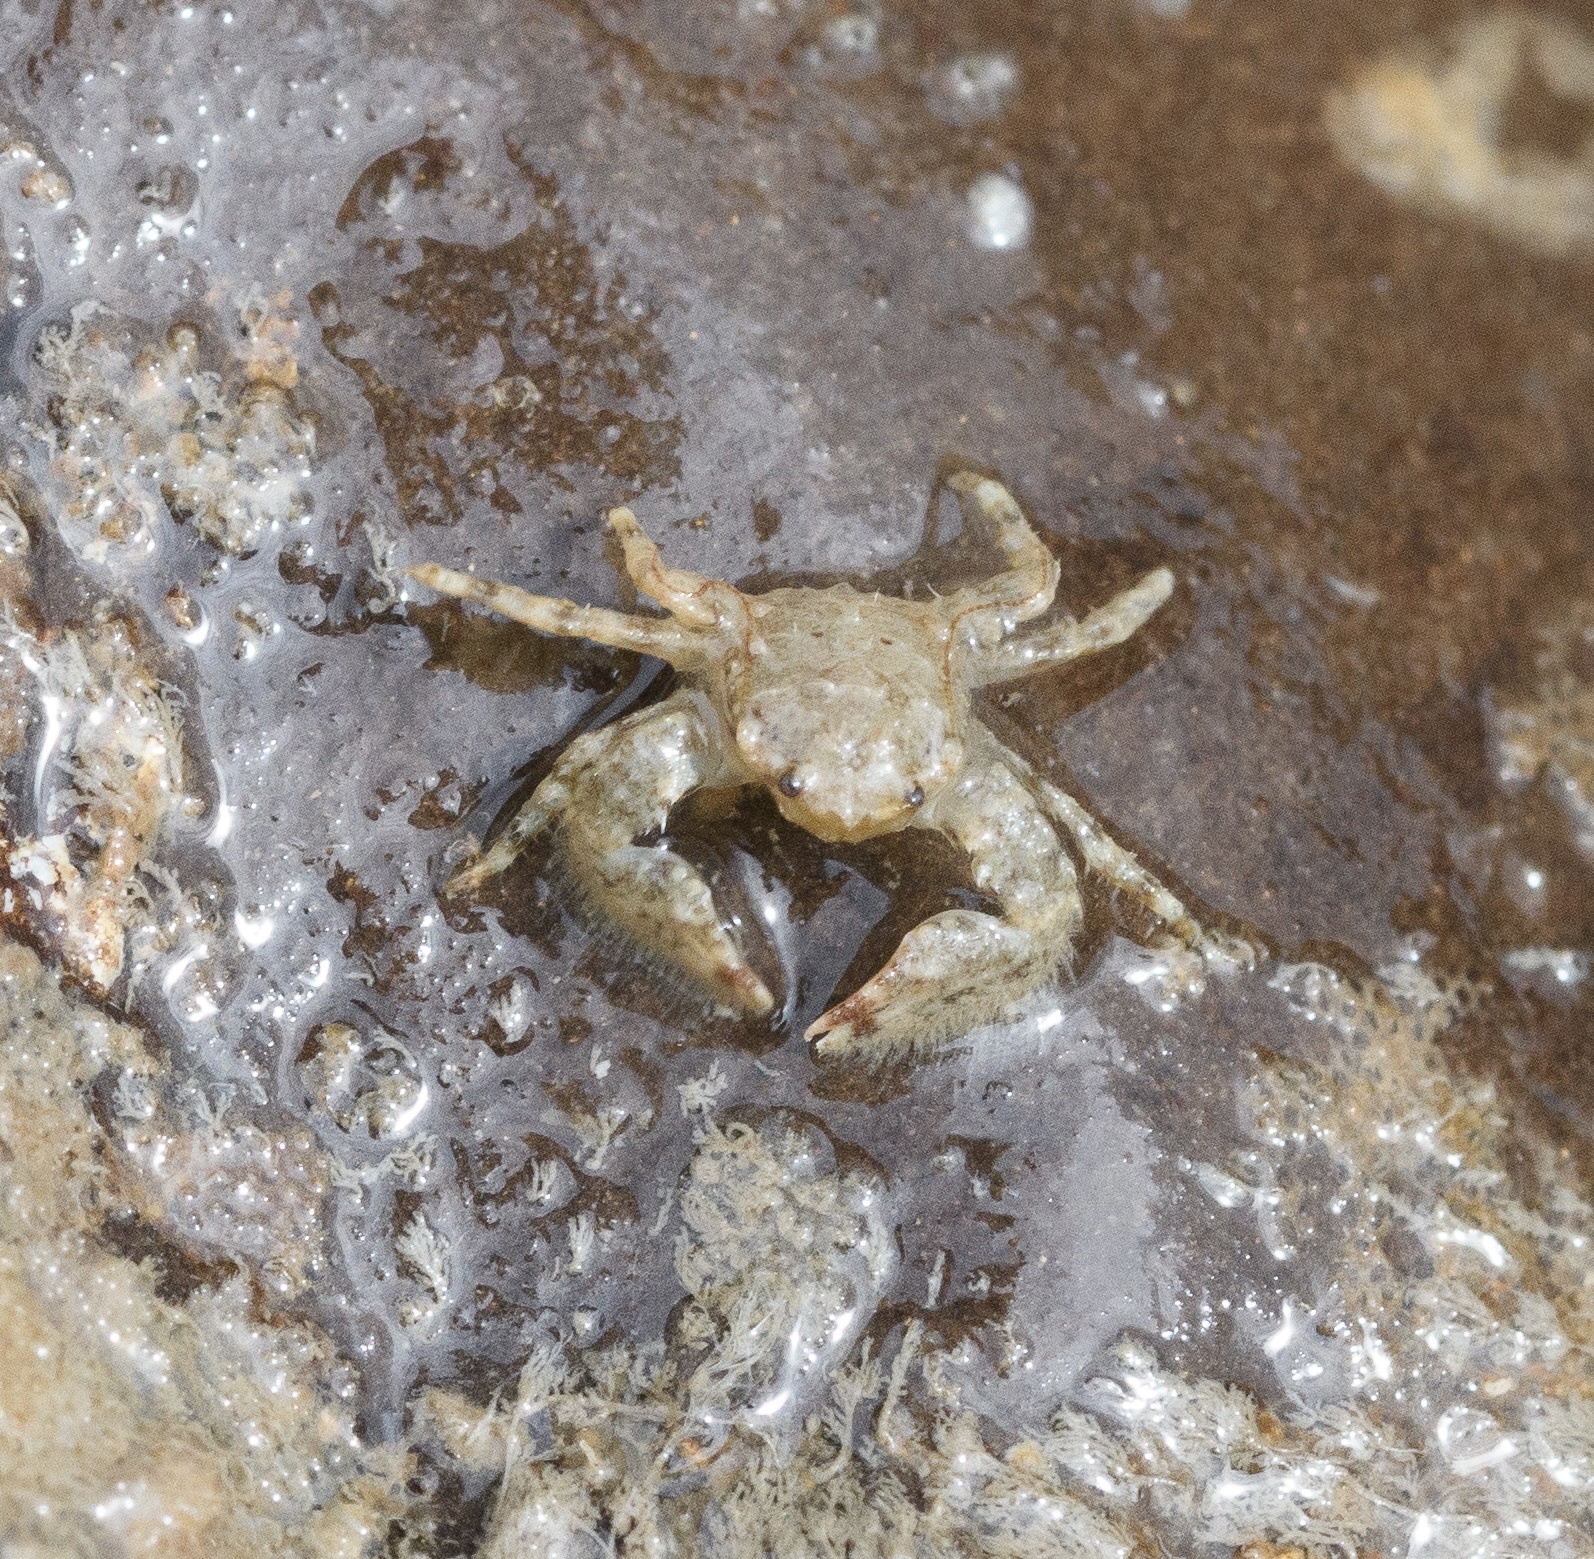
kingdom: Animalia
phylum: Arthropoda
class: Malacostraca
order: Decapoda
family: Porcellanidae
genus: Porcellana
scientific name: Porcellana platycheles
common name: Porcelain crab
